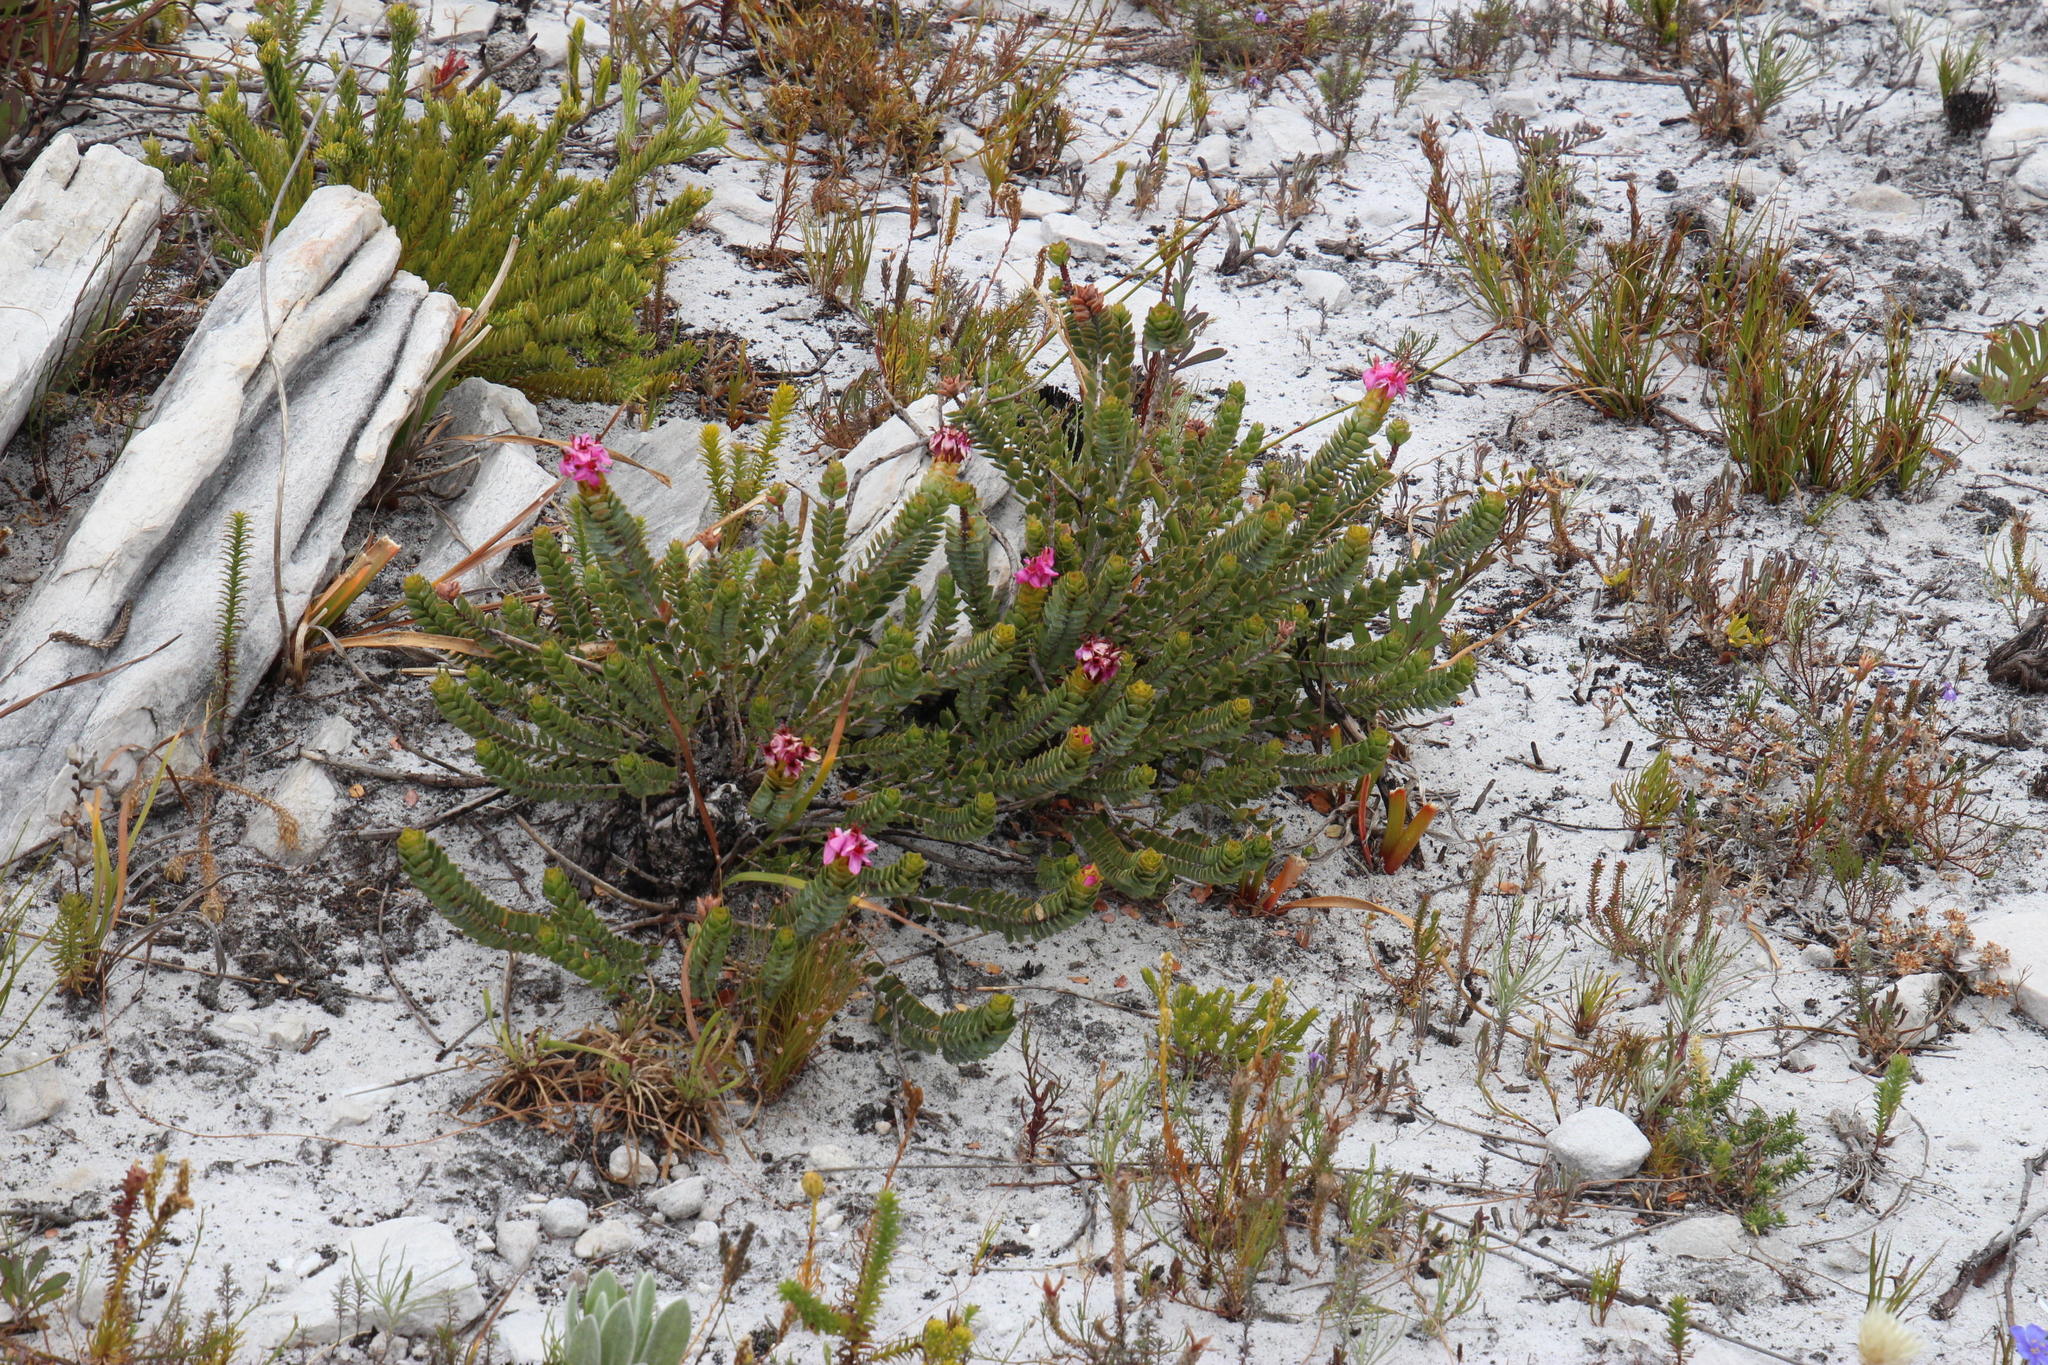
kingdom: Plantae
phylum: Tracheophyta
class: Magnoliopsida
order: Myrtales
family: Penaeaceae
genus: Saltera
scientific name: Saltera sarcocolla
